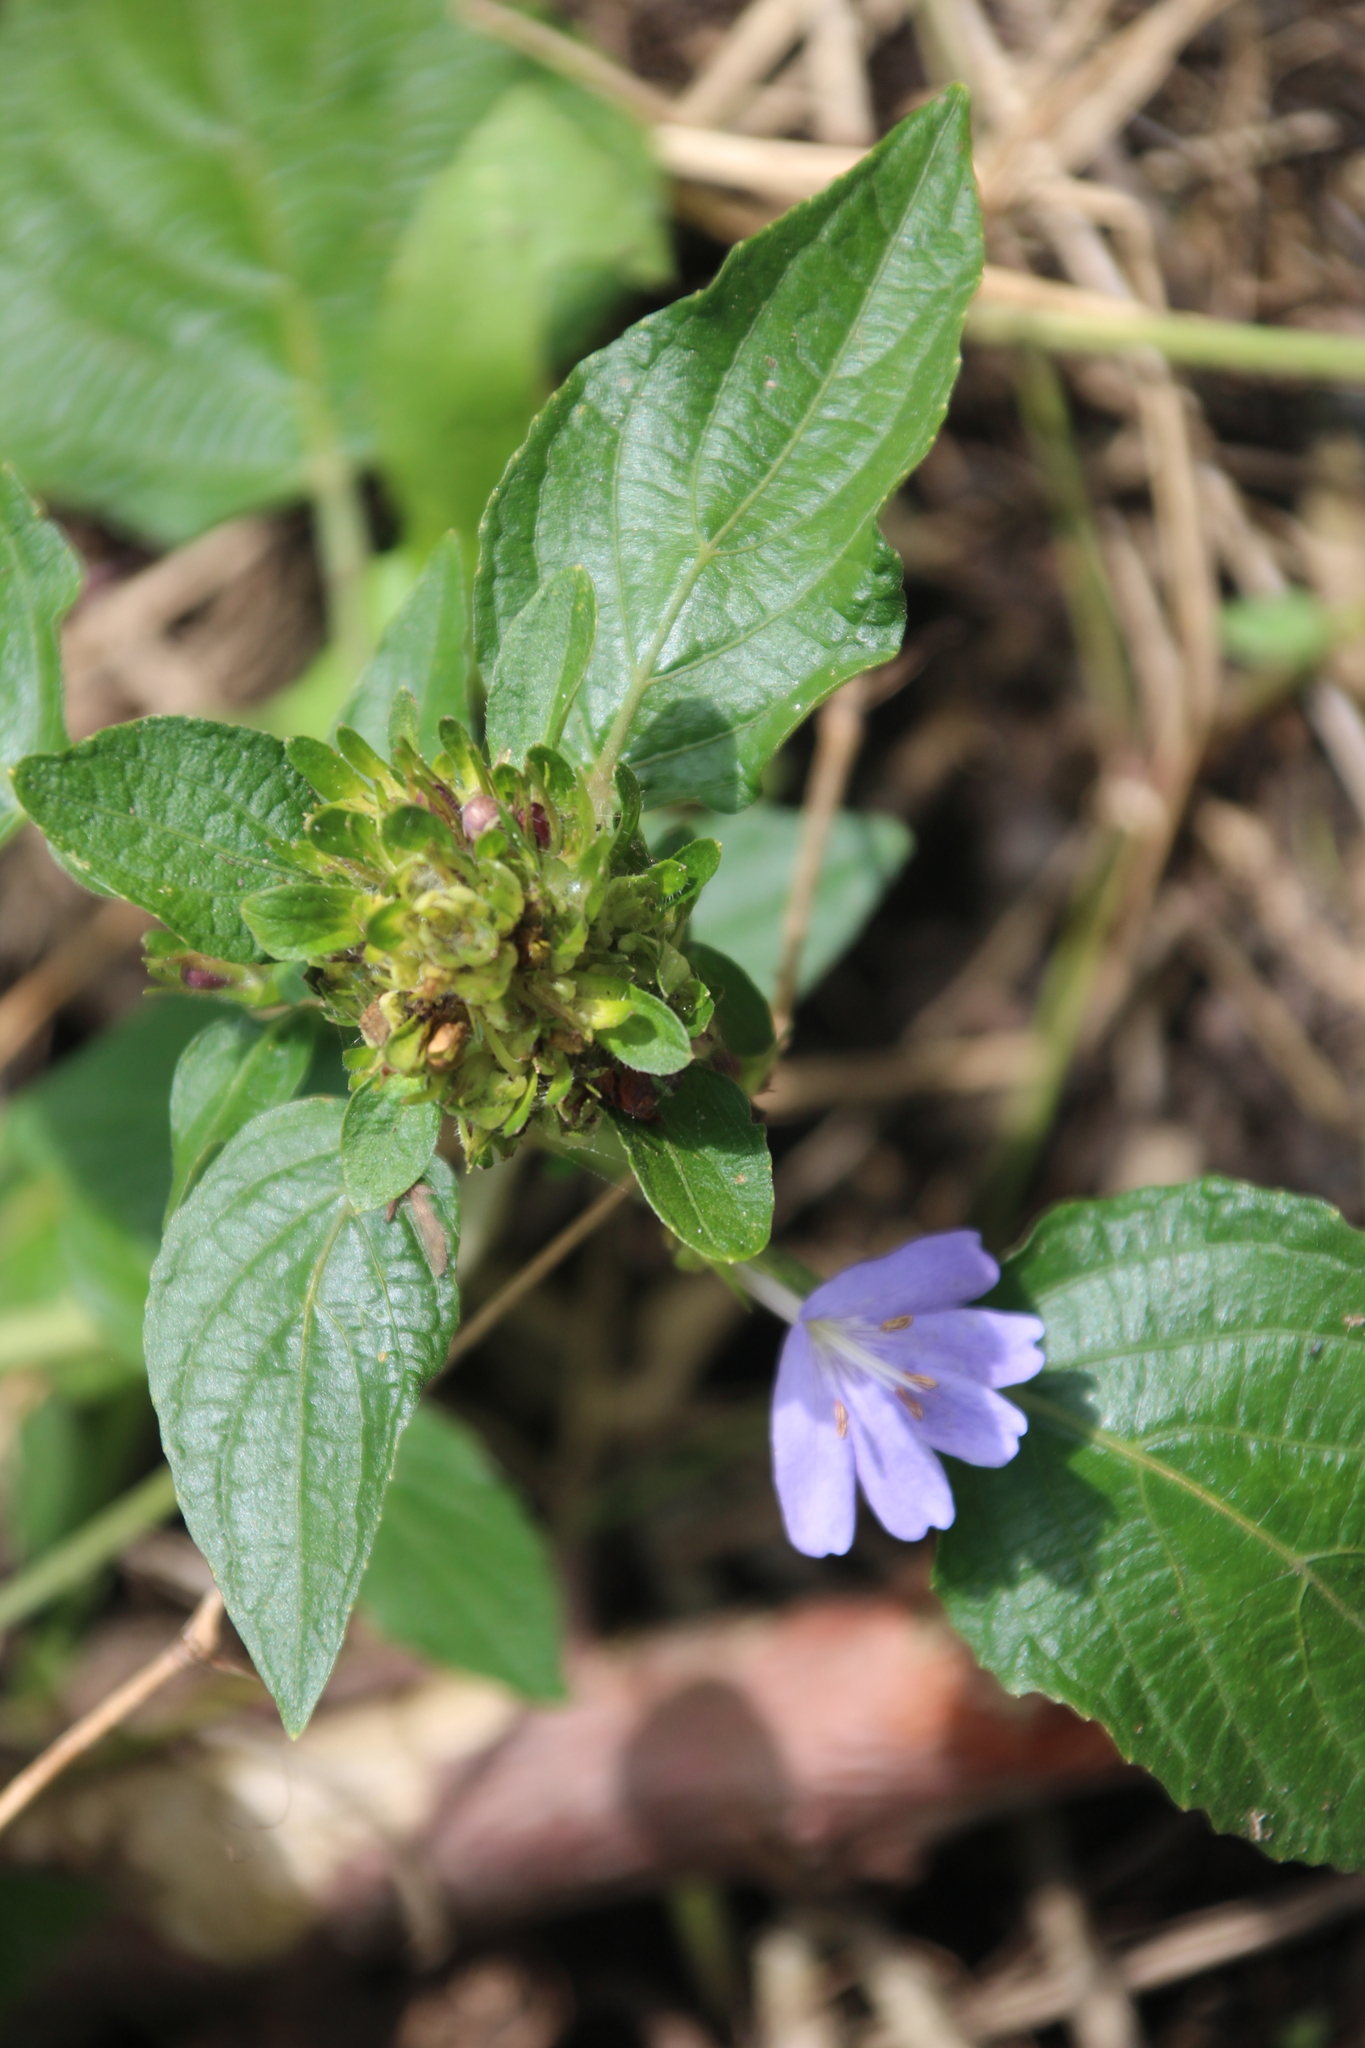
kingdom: Plantae
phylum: Tracheophyta
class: Magnoliopsida
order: Lamiales
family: Acanthaceae
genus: Eremomastax
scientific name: Eremomastax speciosa
